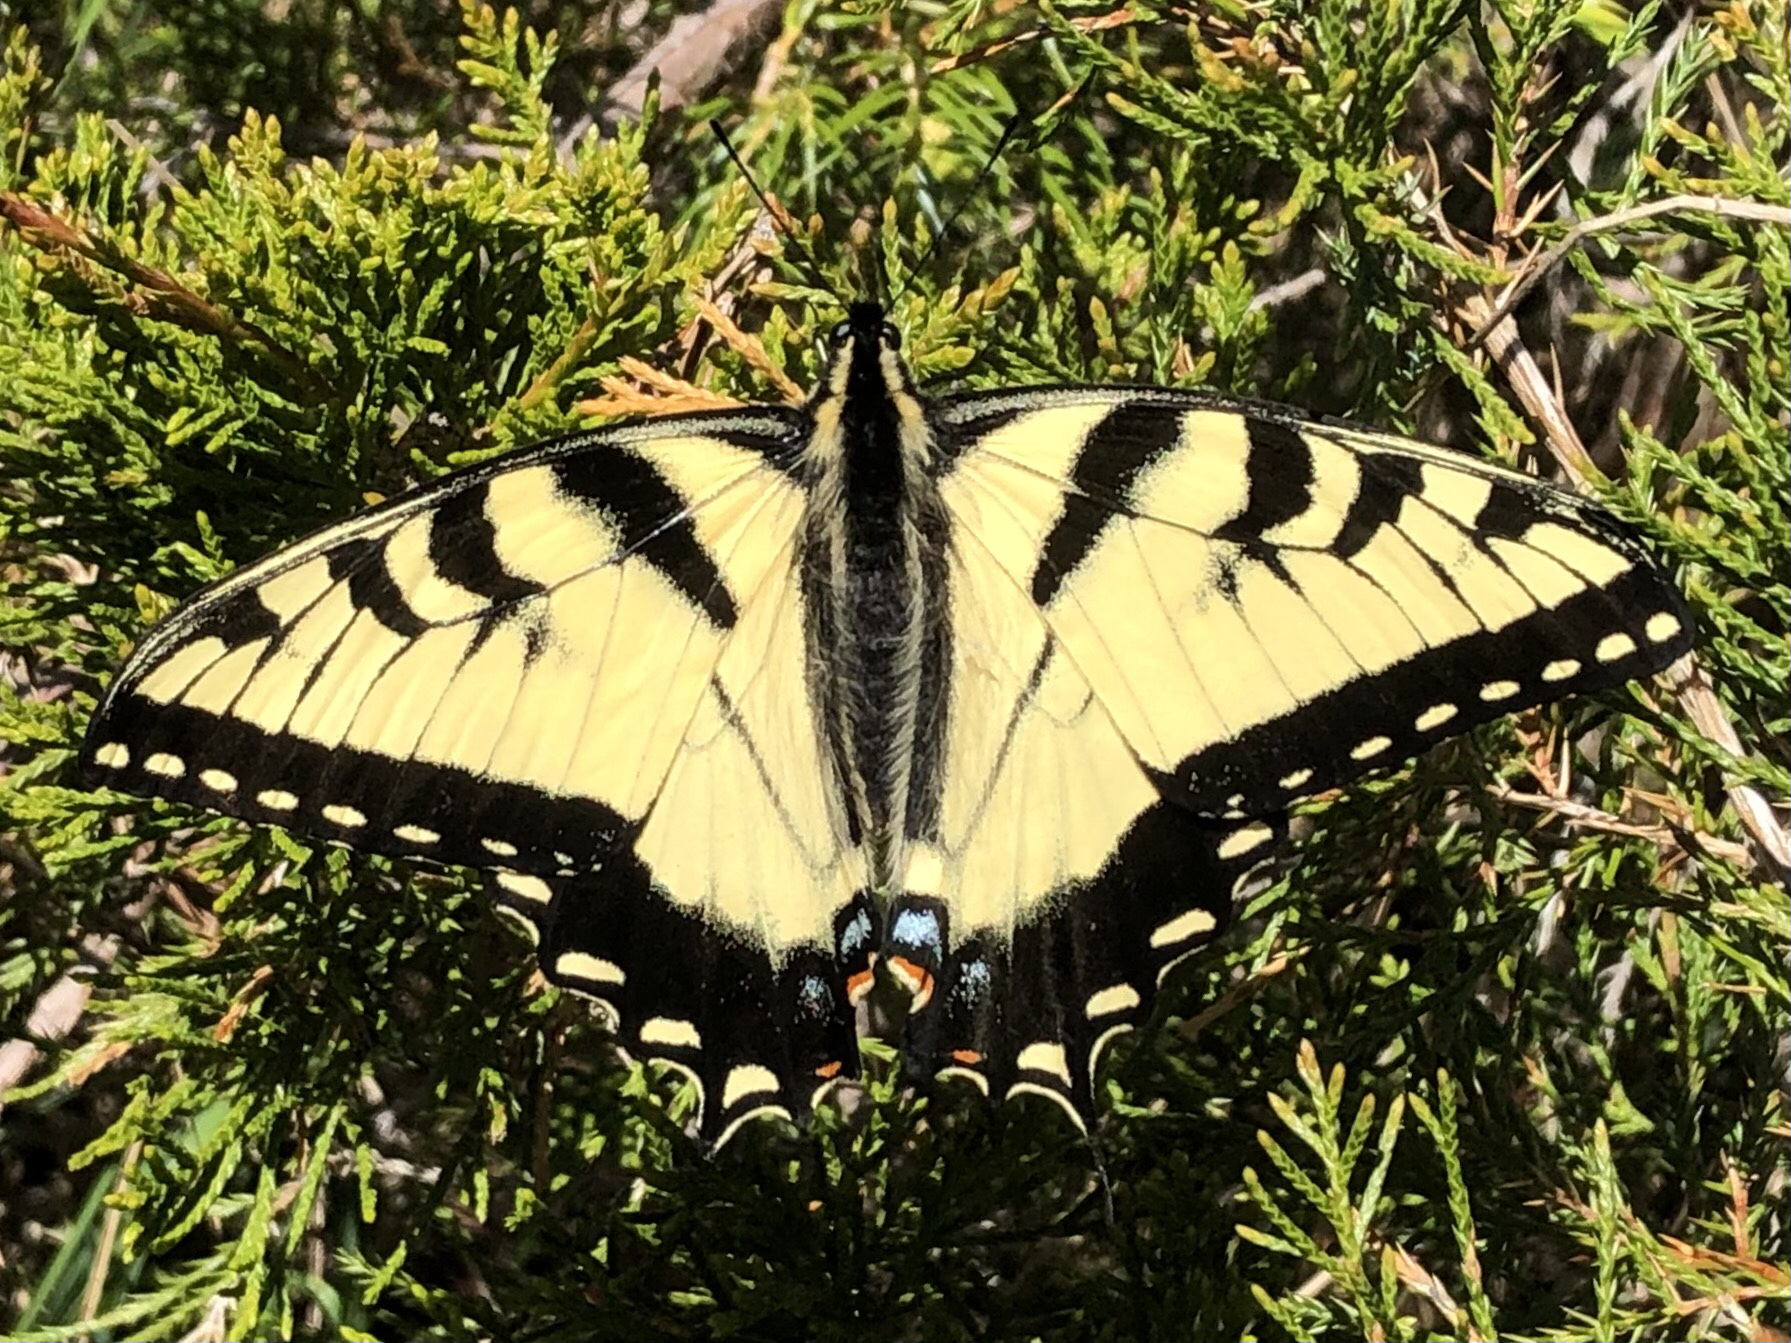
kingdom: Animalia
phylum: Arthropoda
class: Insecta
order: Lepidoptera
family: Papilionidae
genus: Papilio
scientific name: Papilio glaucus
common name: Tiger swallowtail
